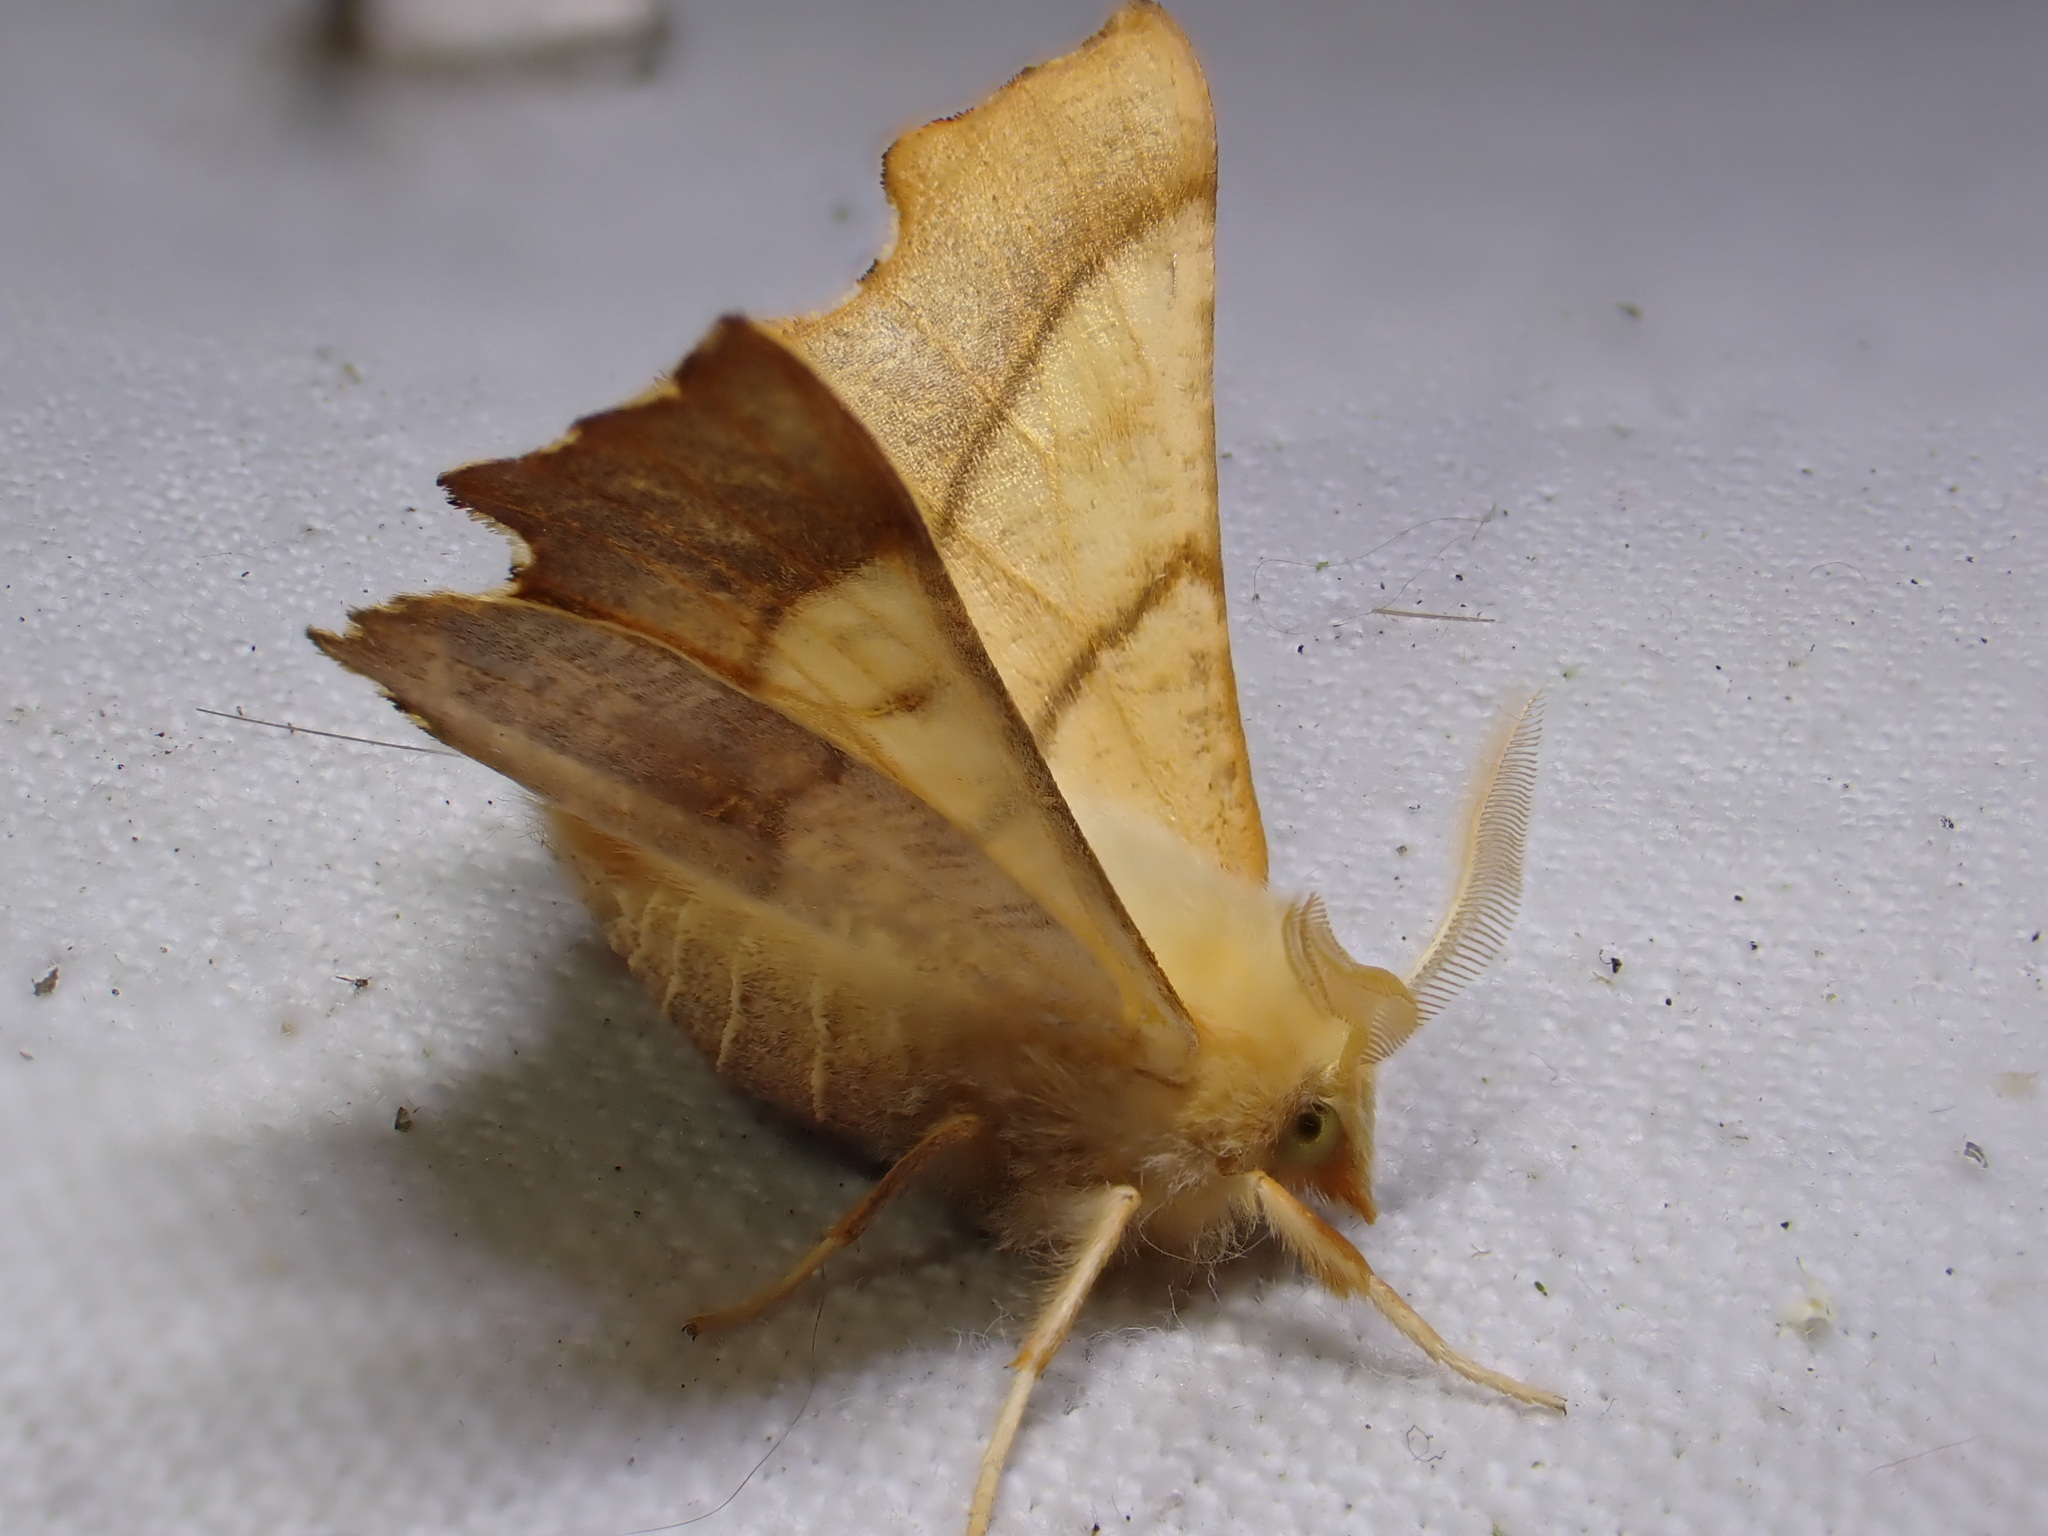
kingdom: Animalia
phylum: Arthropoda
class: Insecta
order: Lepidoptera
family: Geometridae
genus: Ennomos
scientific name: Ennomos fuscantaria
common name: Dusky thorn
